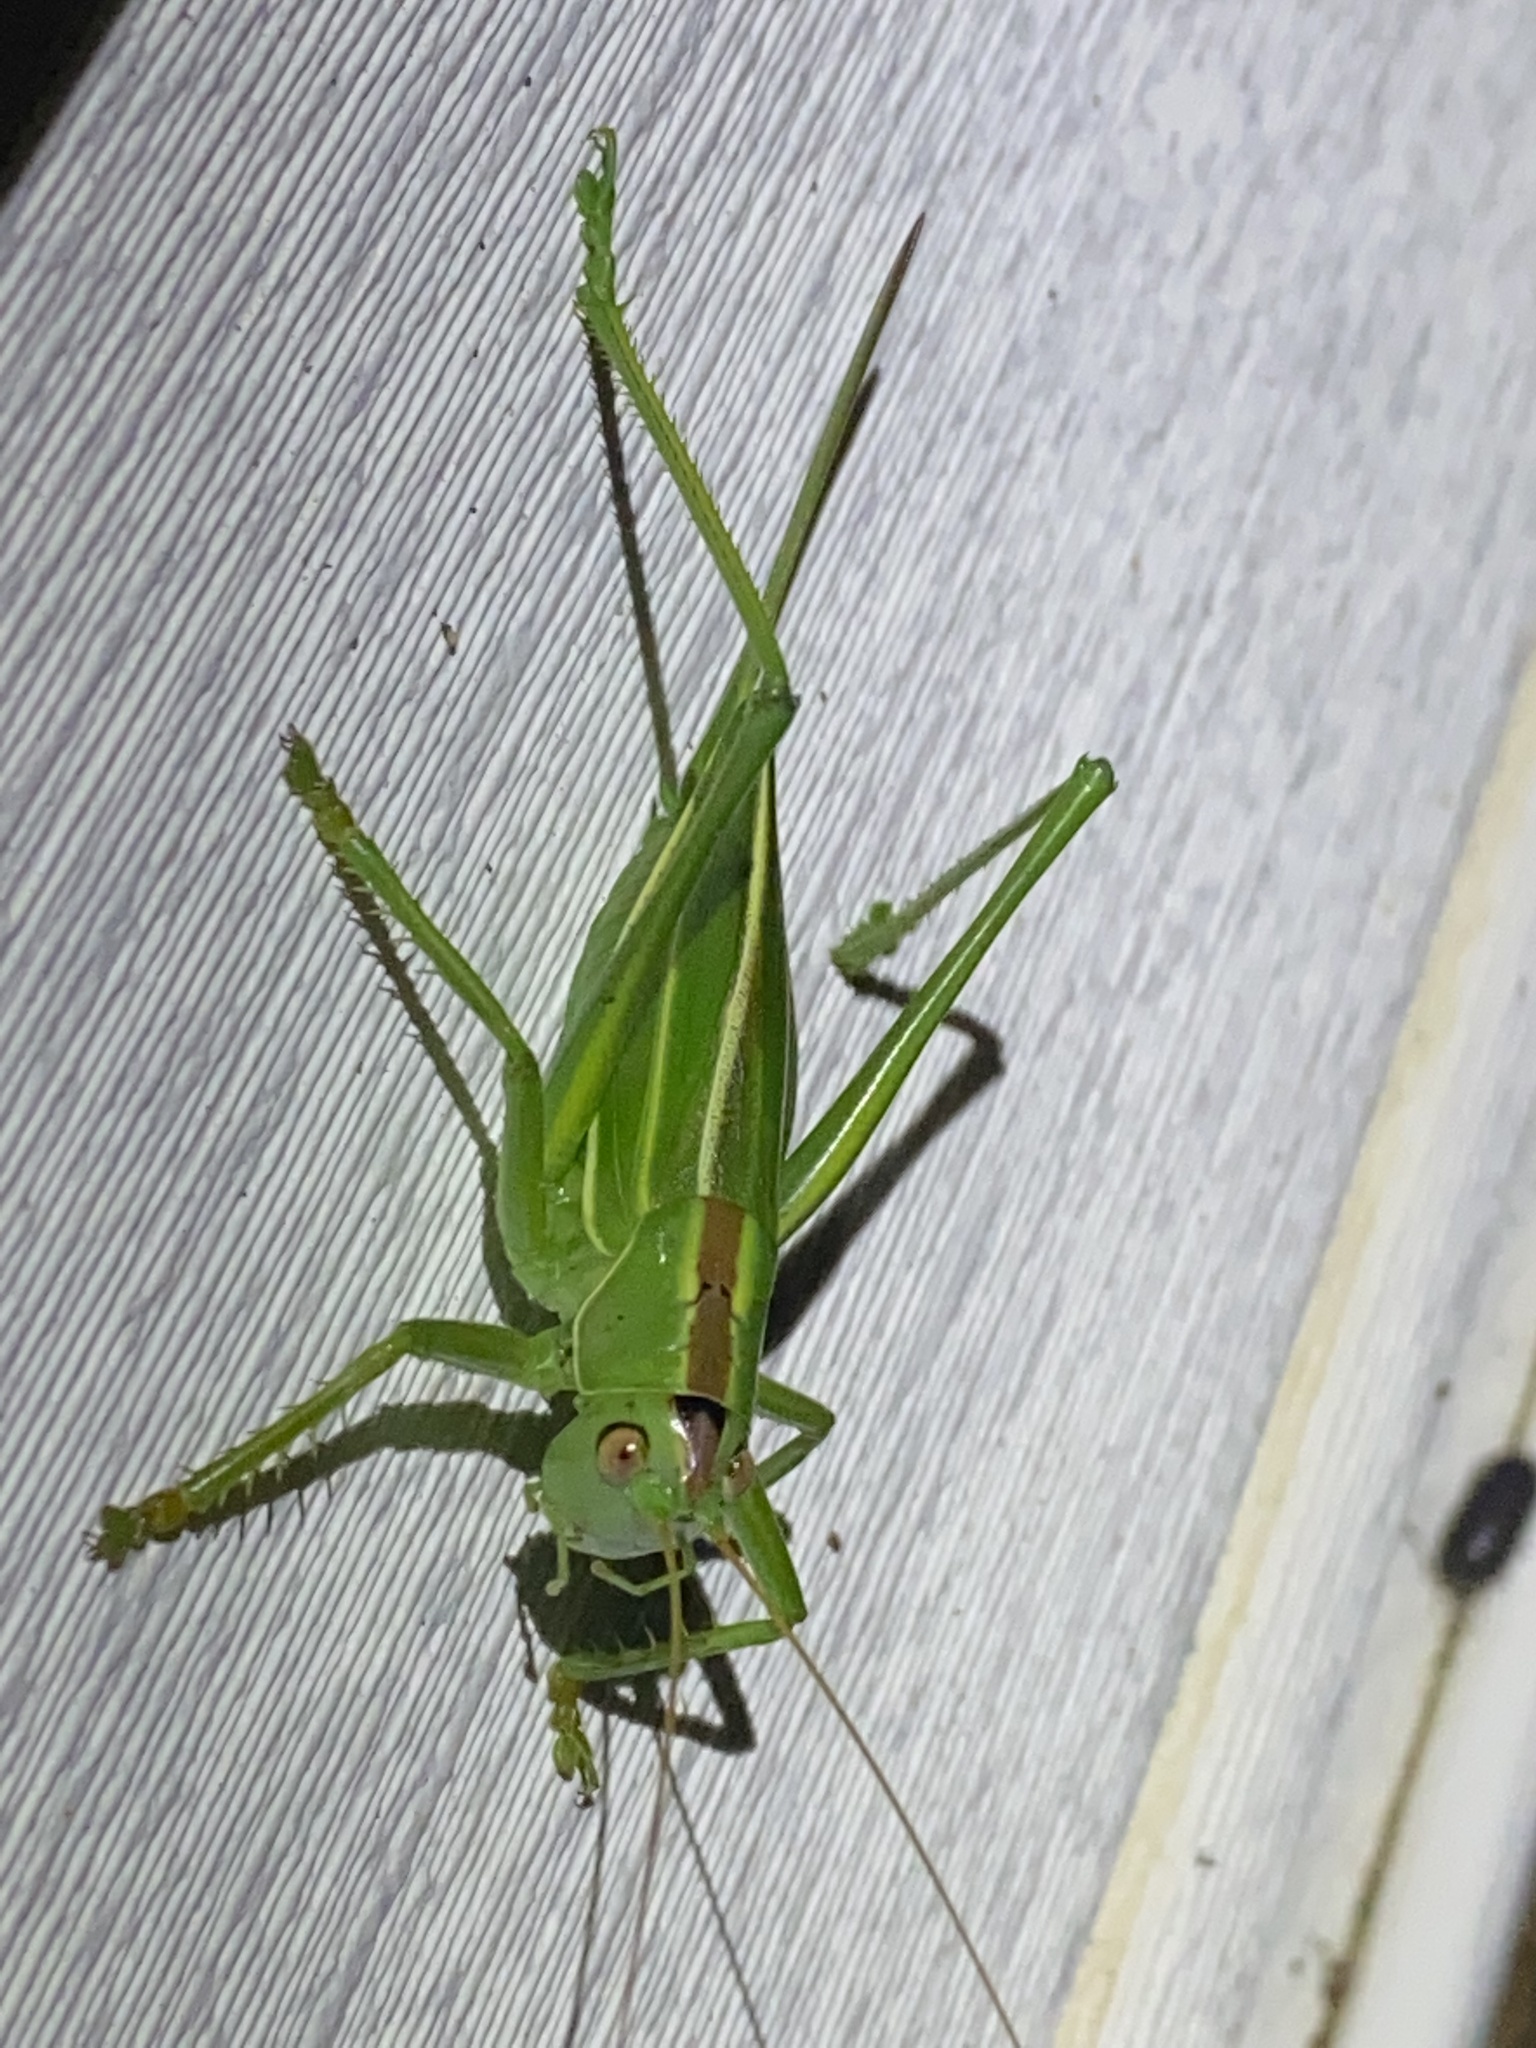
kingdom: Animalia
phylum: Arthropoda
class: Insecta
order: Orthoptera
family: Tettigoniidae
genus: Hubbellia
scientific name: Hubbellia marginifera
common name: Pine katydid
